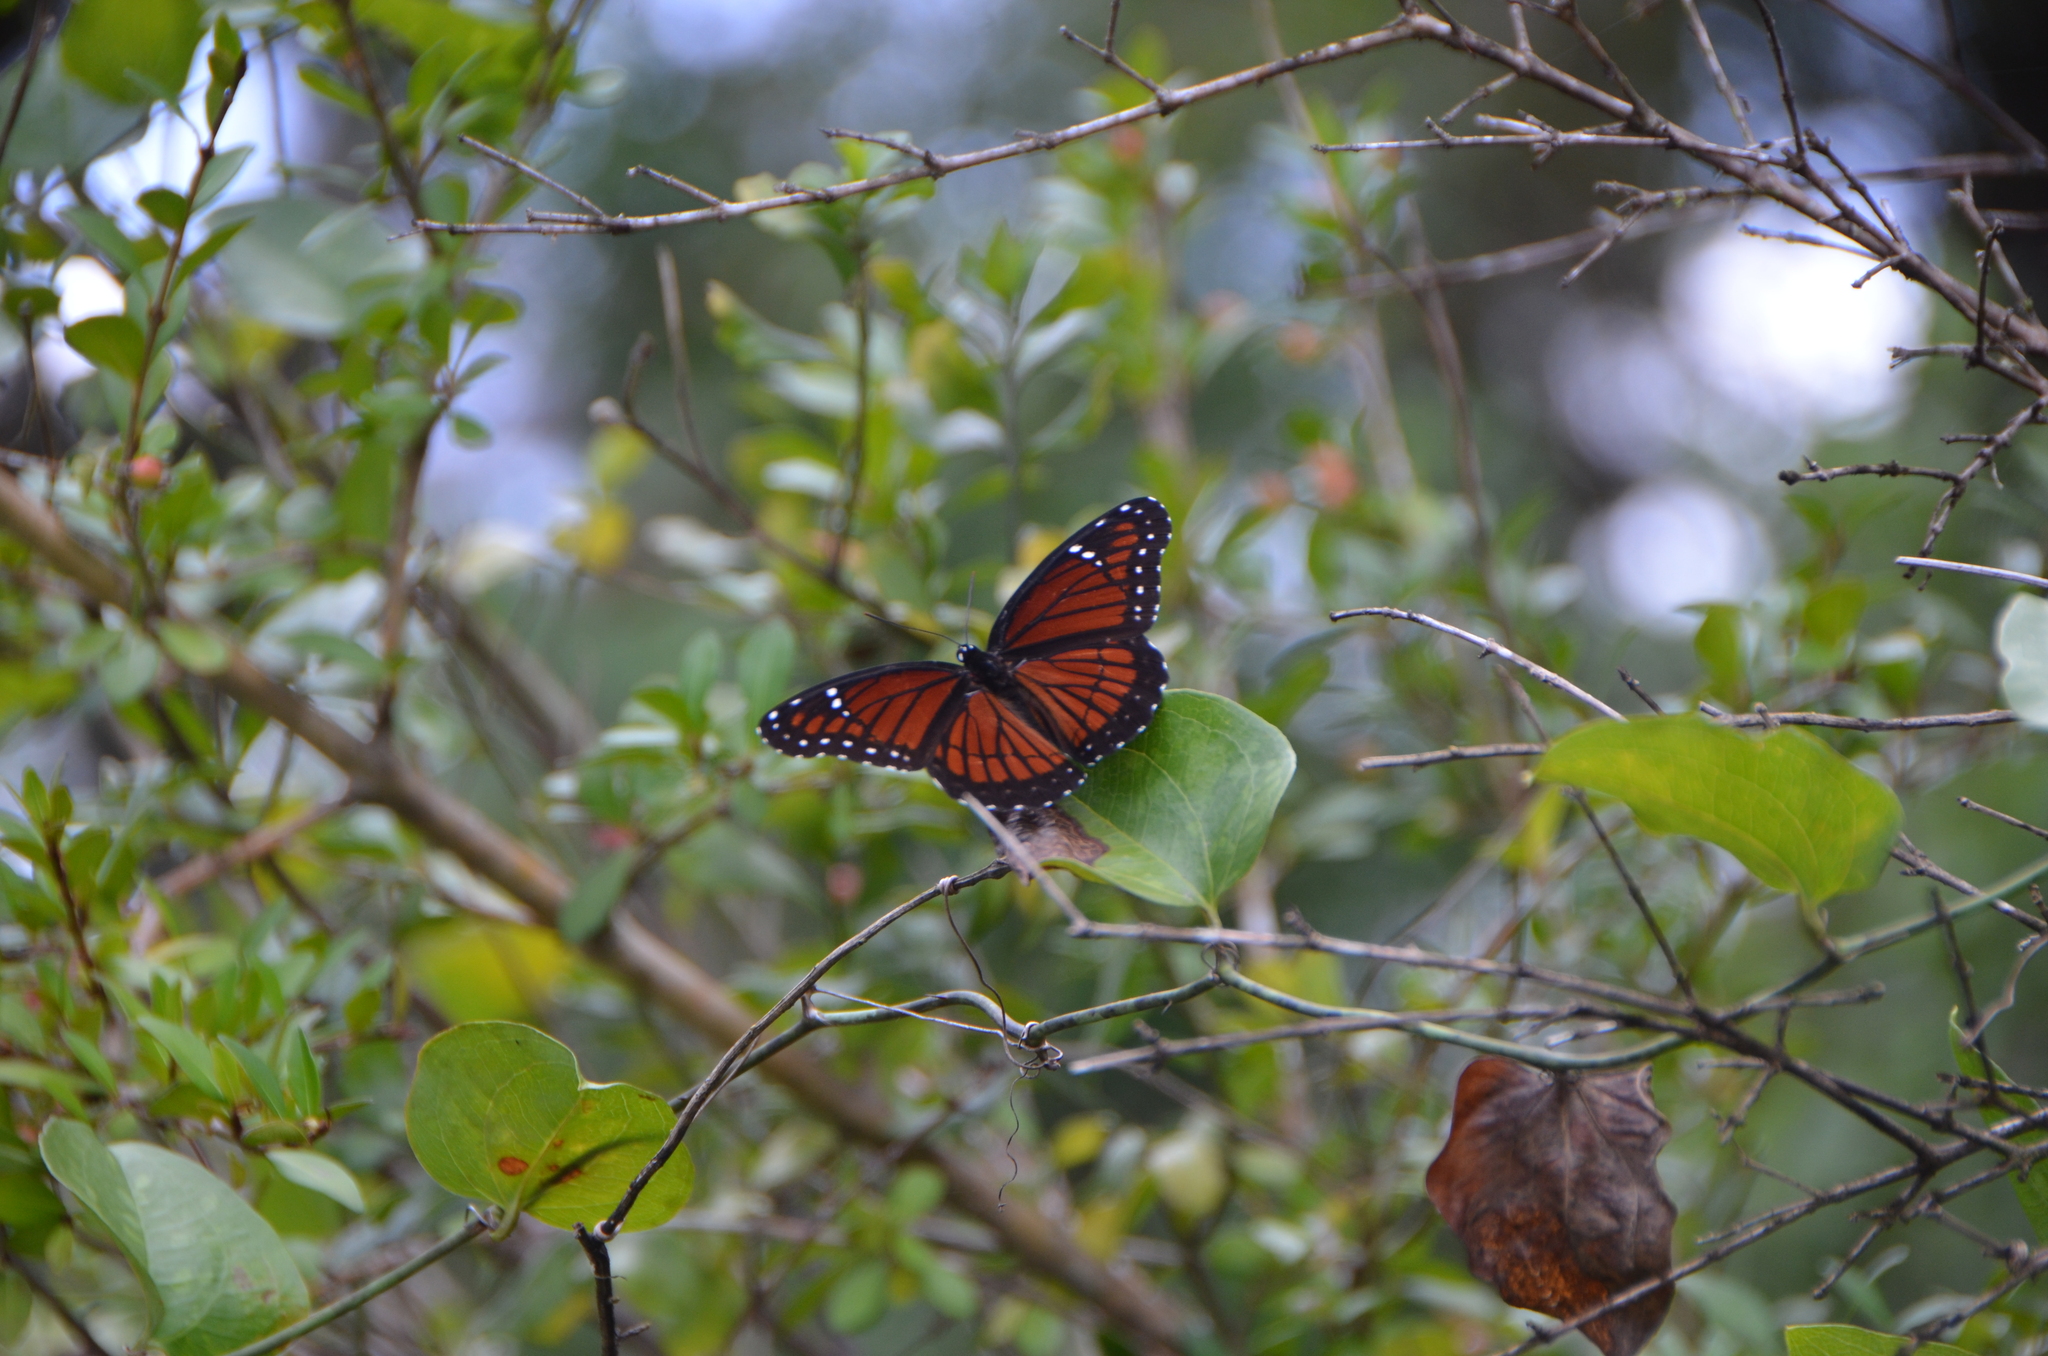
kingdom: Animalia
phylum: Arthropoda
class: Insecta
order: Lepidoptera
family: Nymphalidae
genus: Limenitis
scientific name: Limenitis archippus
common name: Viceroy
